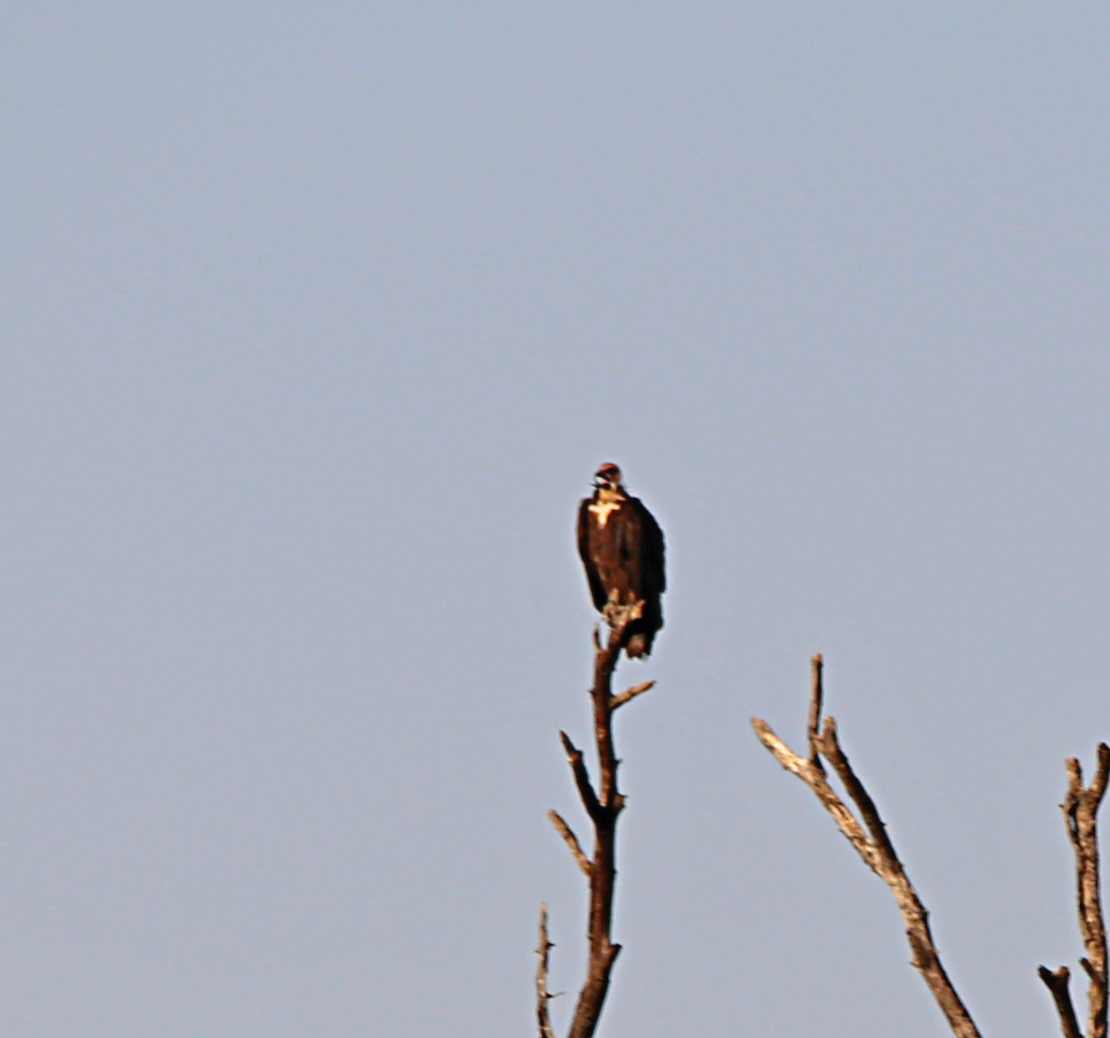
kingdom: Animalia
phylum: Chordata
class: Aves
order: Accipitriformes
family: Accipitridae
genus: Necrosyrtes
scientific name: Necrosyrtes monachus
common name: Hooded vulture
